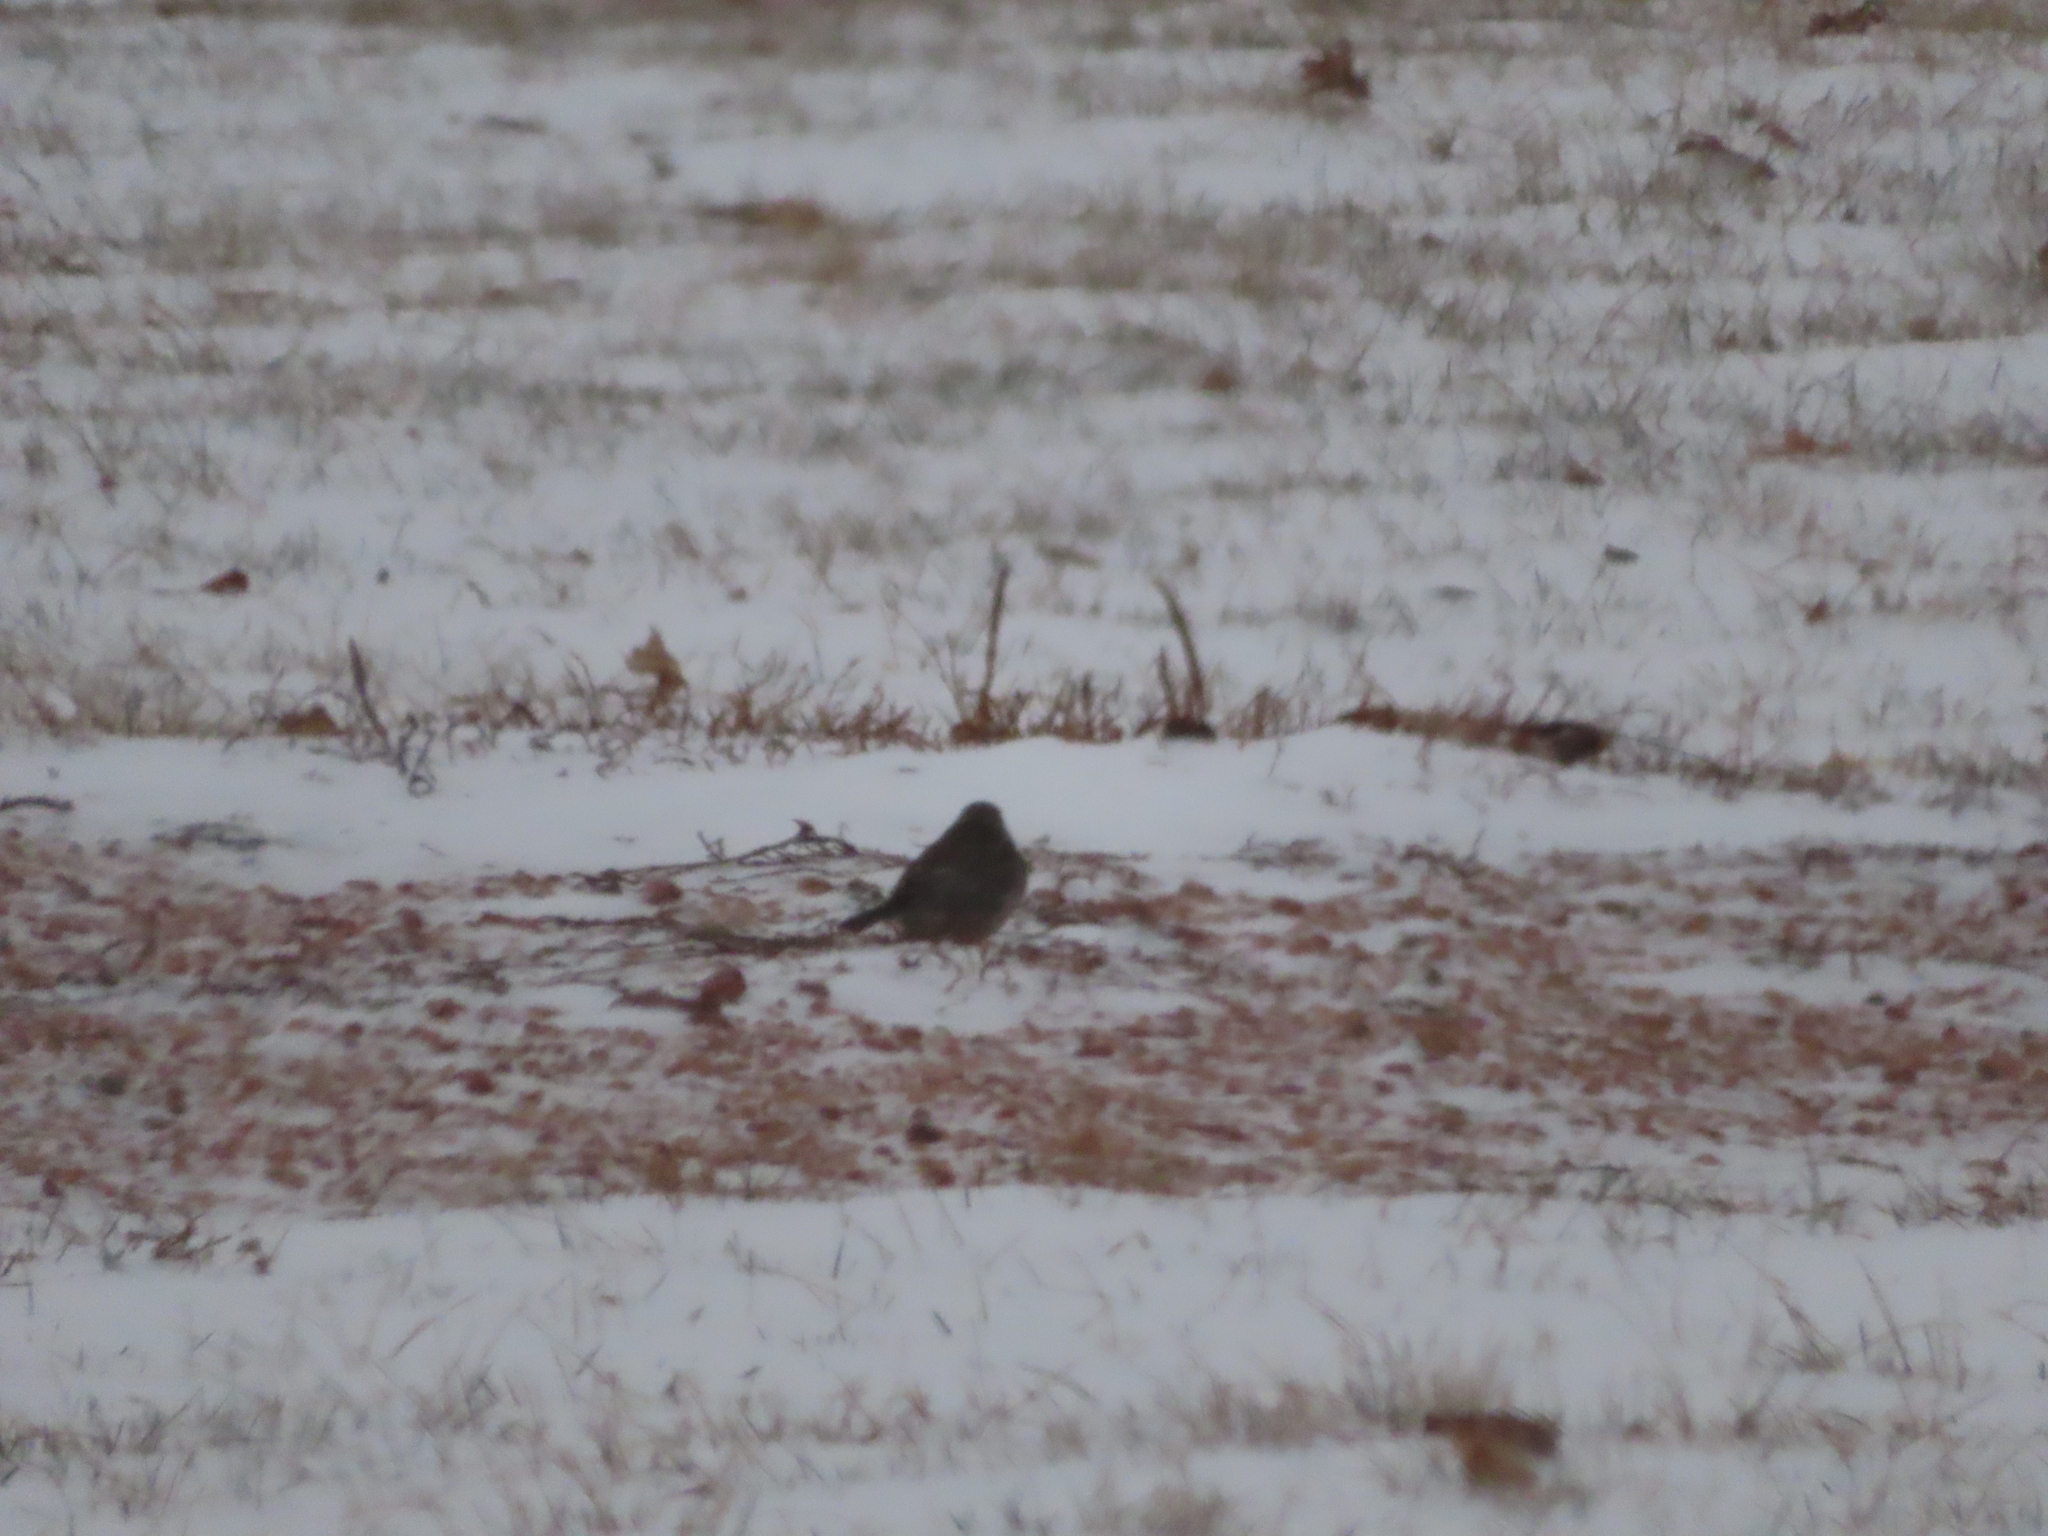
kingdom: Animalia
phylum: Chordata
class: Aves
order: Passeriformes
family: Passerellidae
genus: Junco
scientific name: Junco hyemalis
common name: Dark-eyed junco
